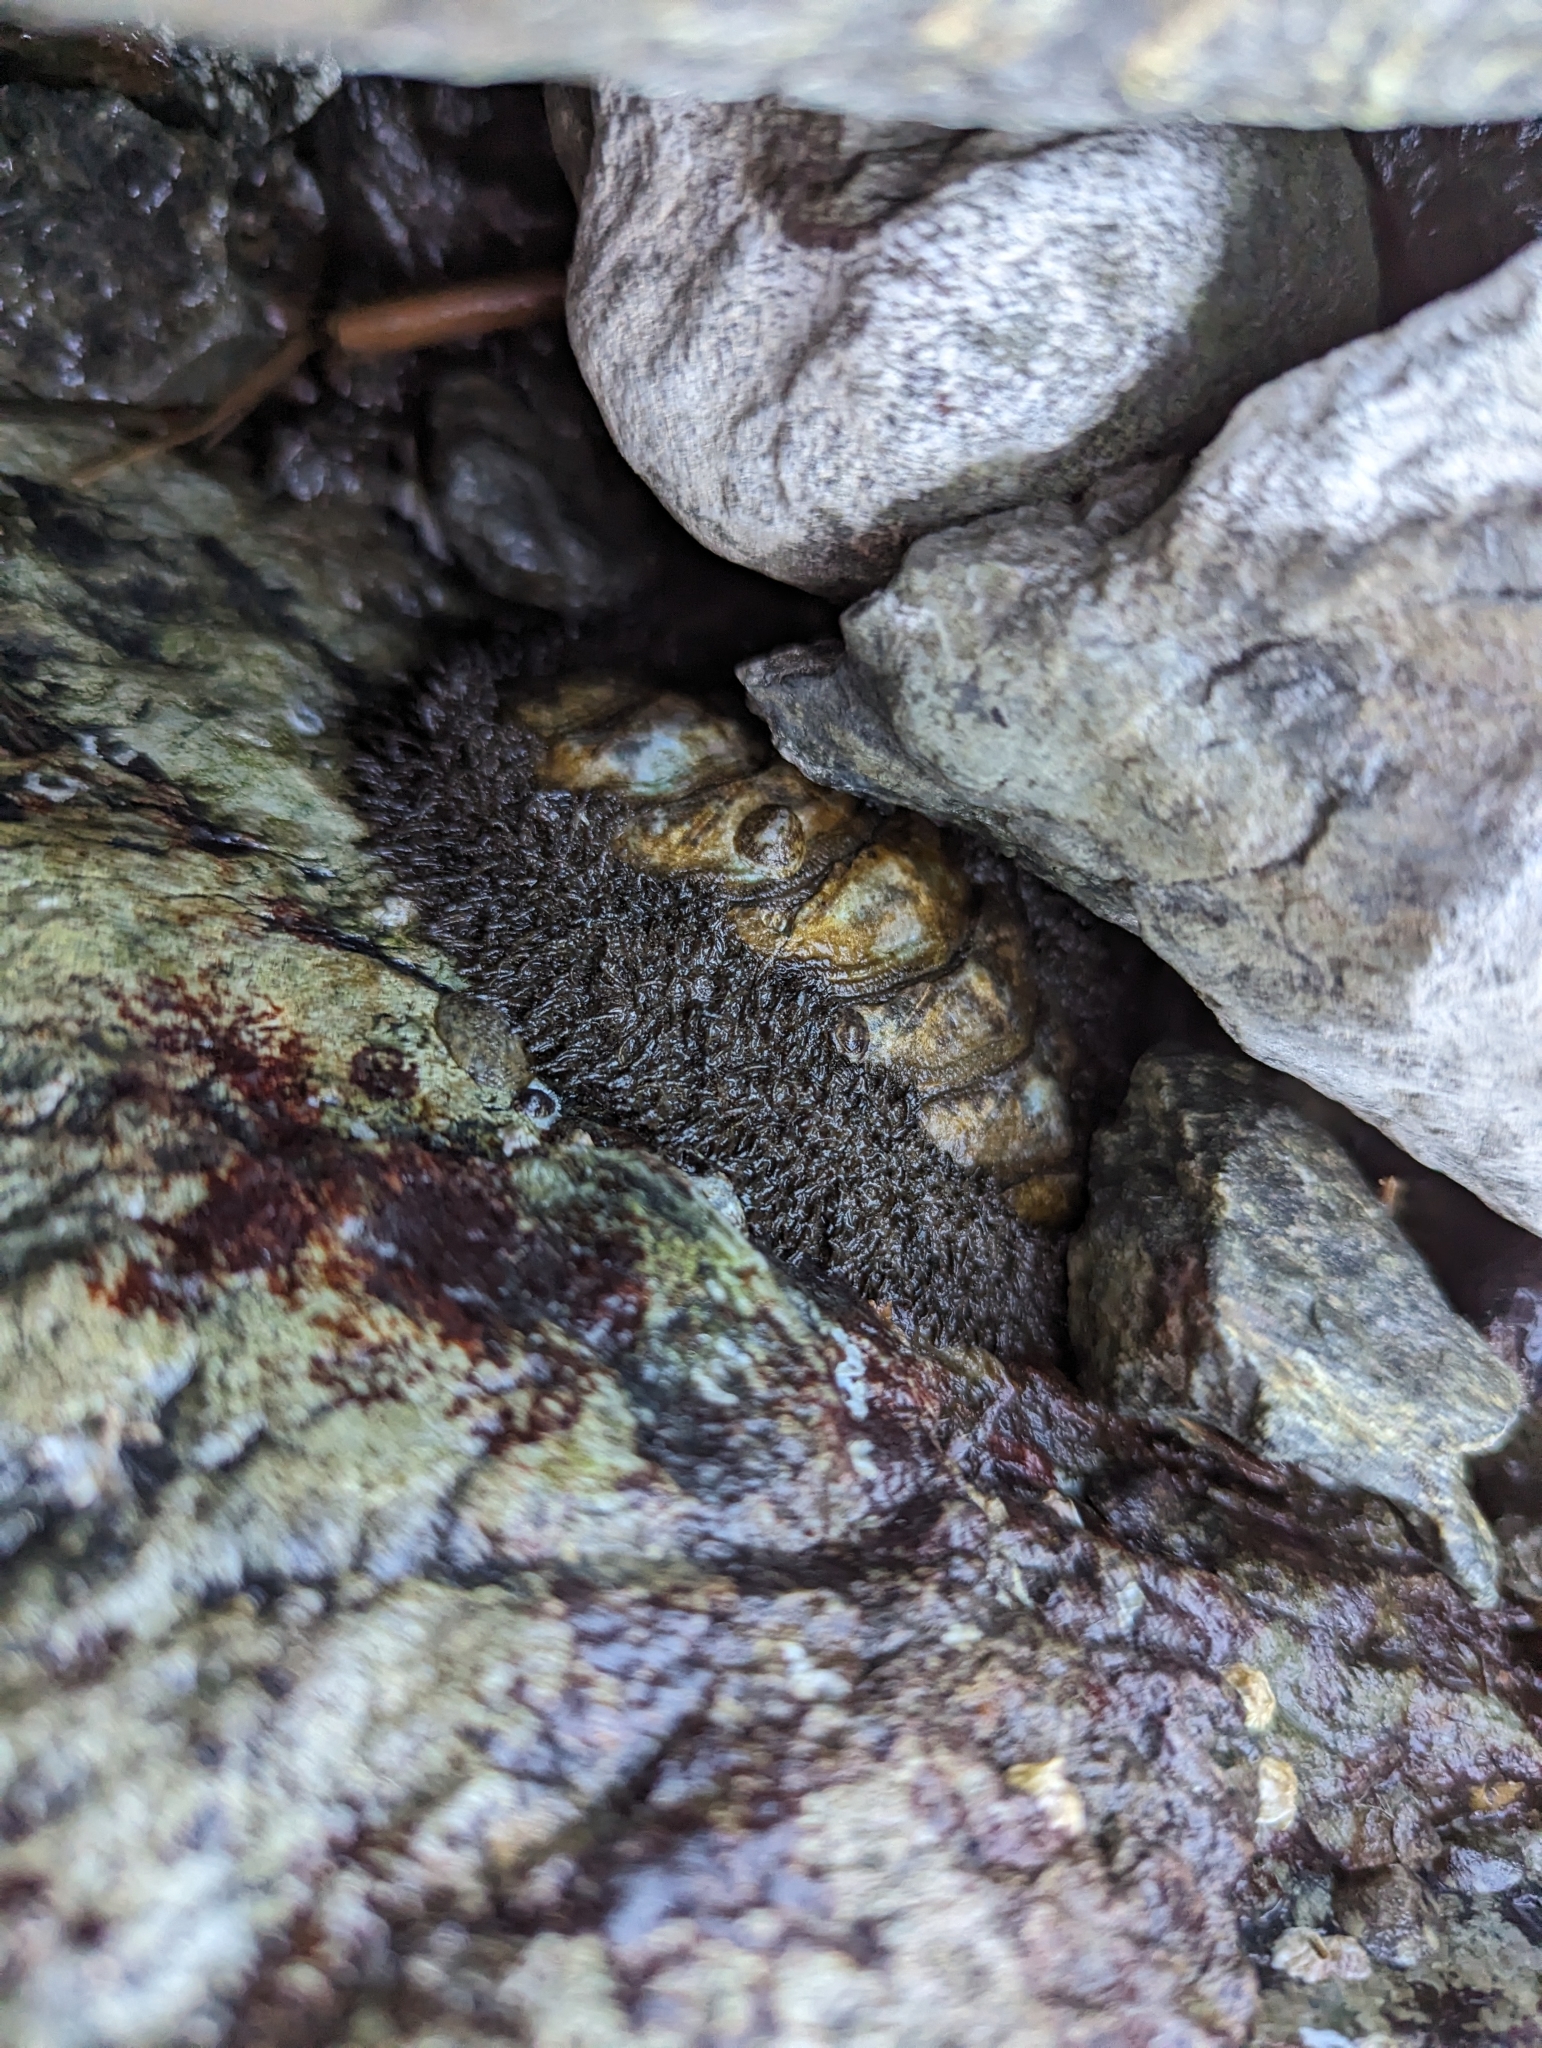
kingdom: Animalia
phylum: Mollusca
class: Polyplacophora
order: Chitonida
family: Mopaliidae
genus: Mopalia
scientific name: Mopalia muscosa
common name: Mossy chiton
